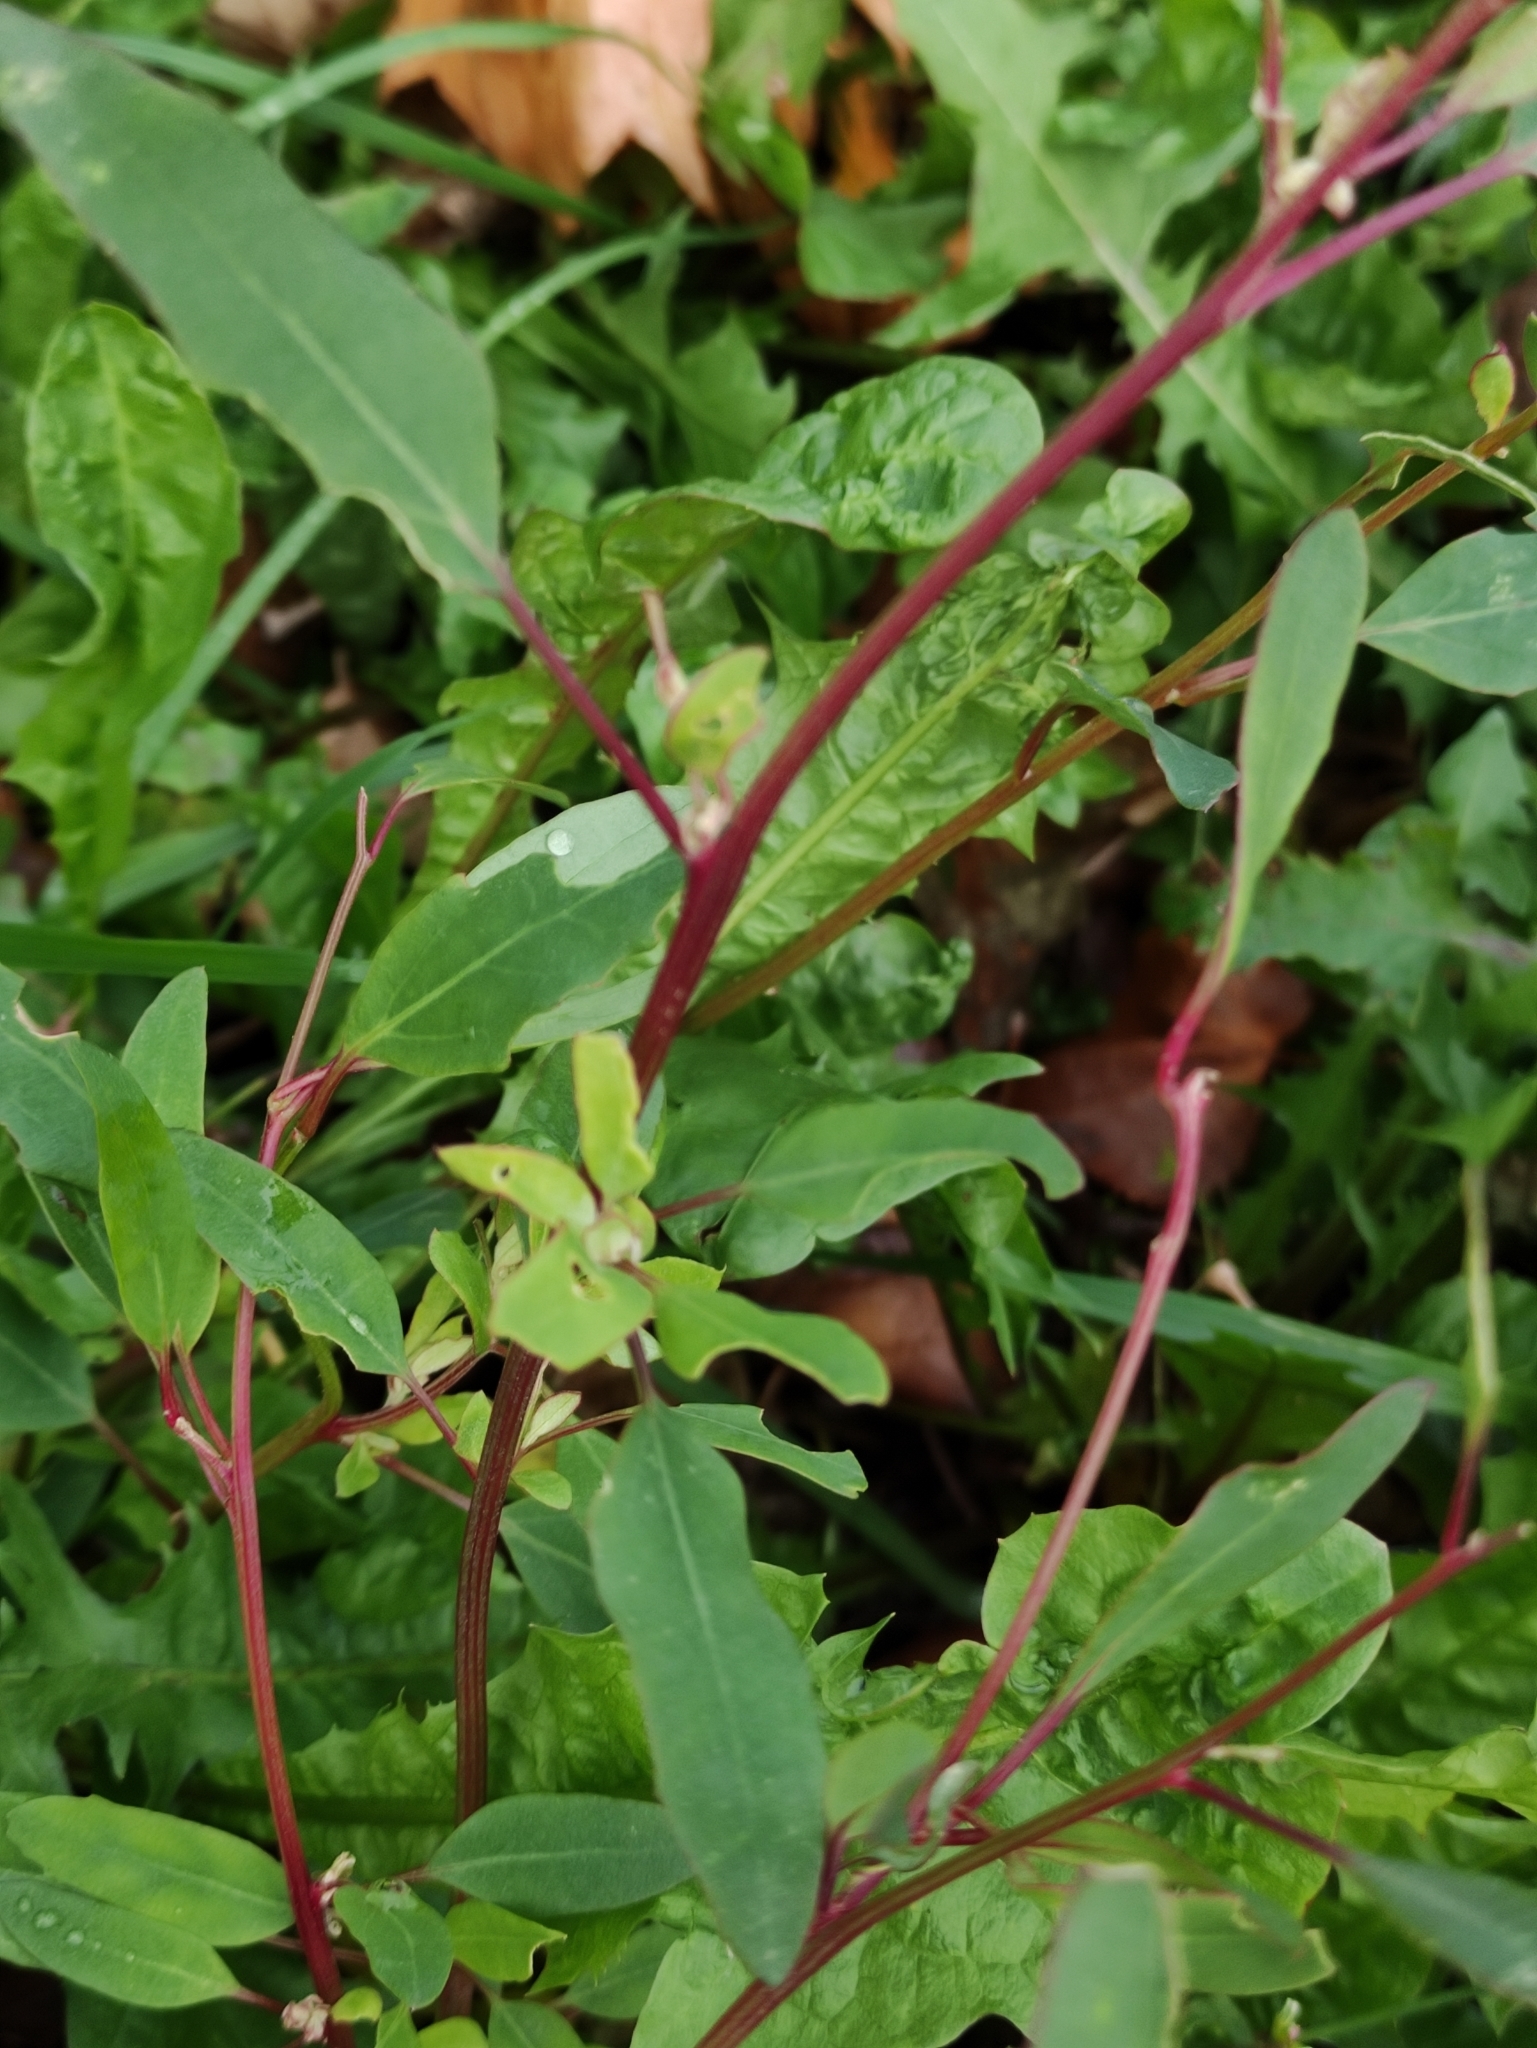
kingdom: Plantae
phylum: Tracheophyta
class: Magnoliopsida
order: Caryophyllales
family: Amaranthaceae
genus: Chenopodium
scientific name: Chenopodium betaceum
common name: Striped goosefoot
